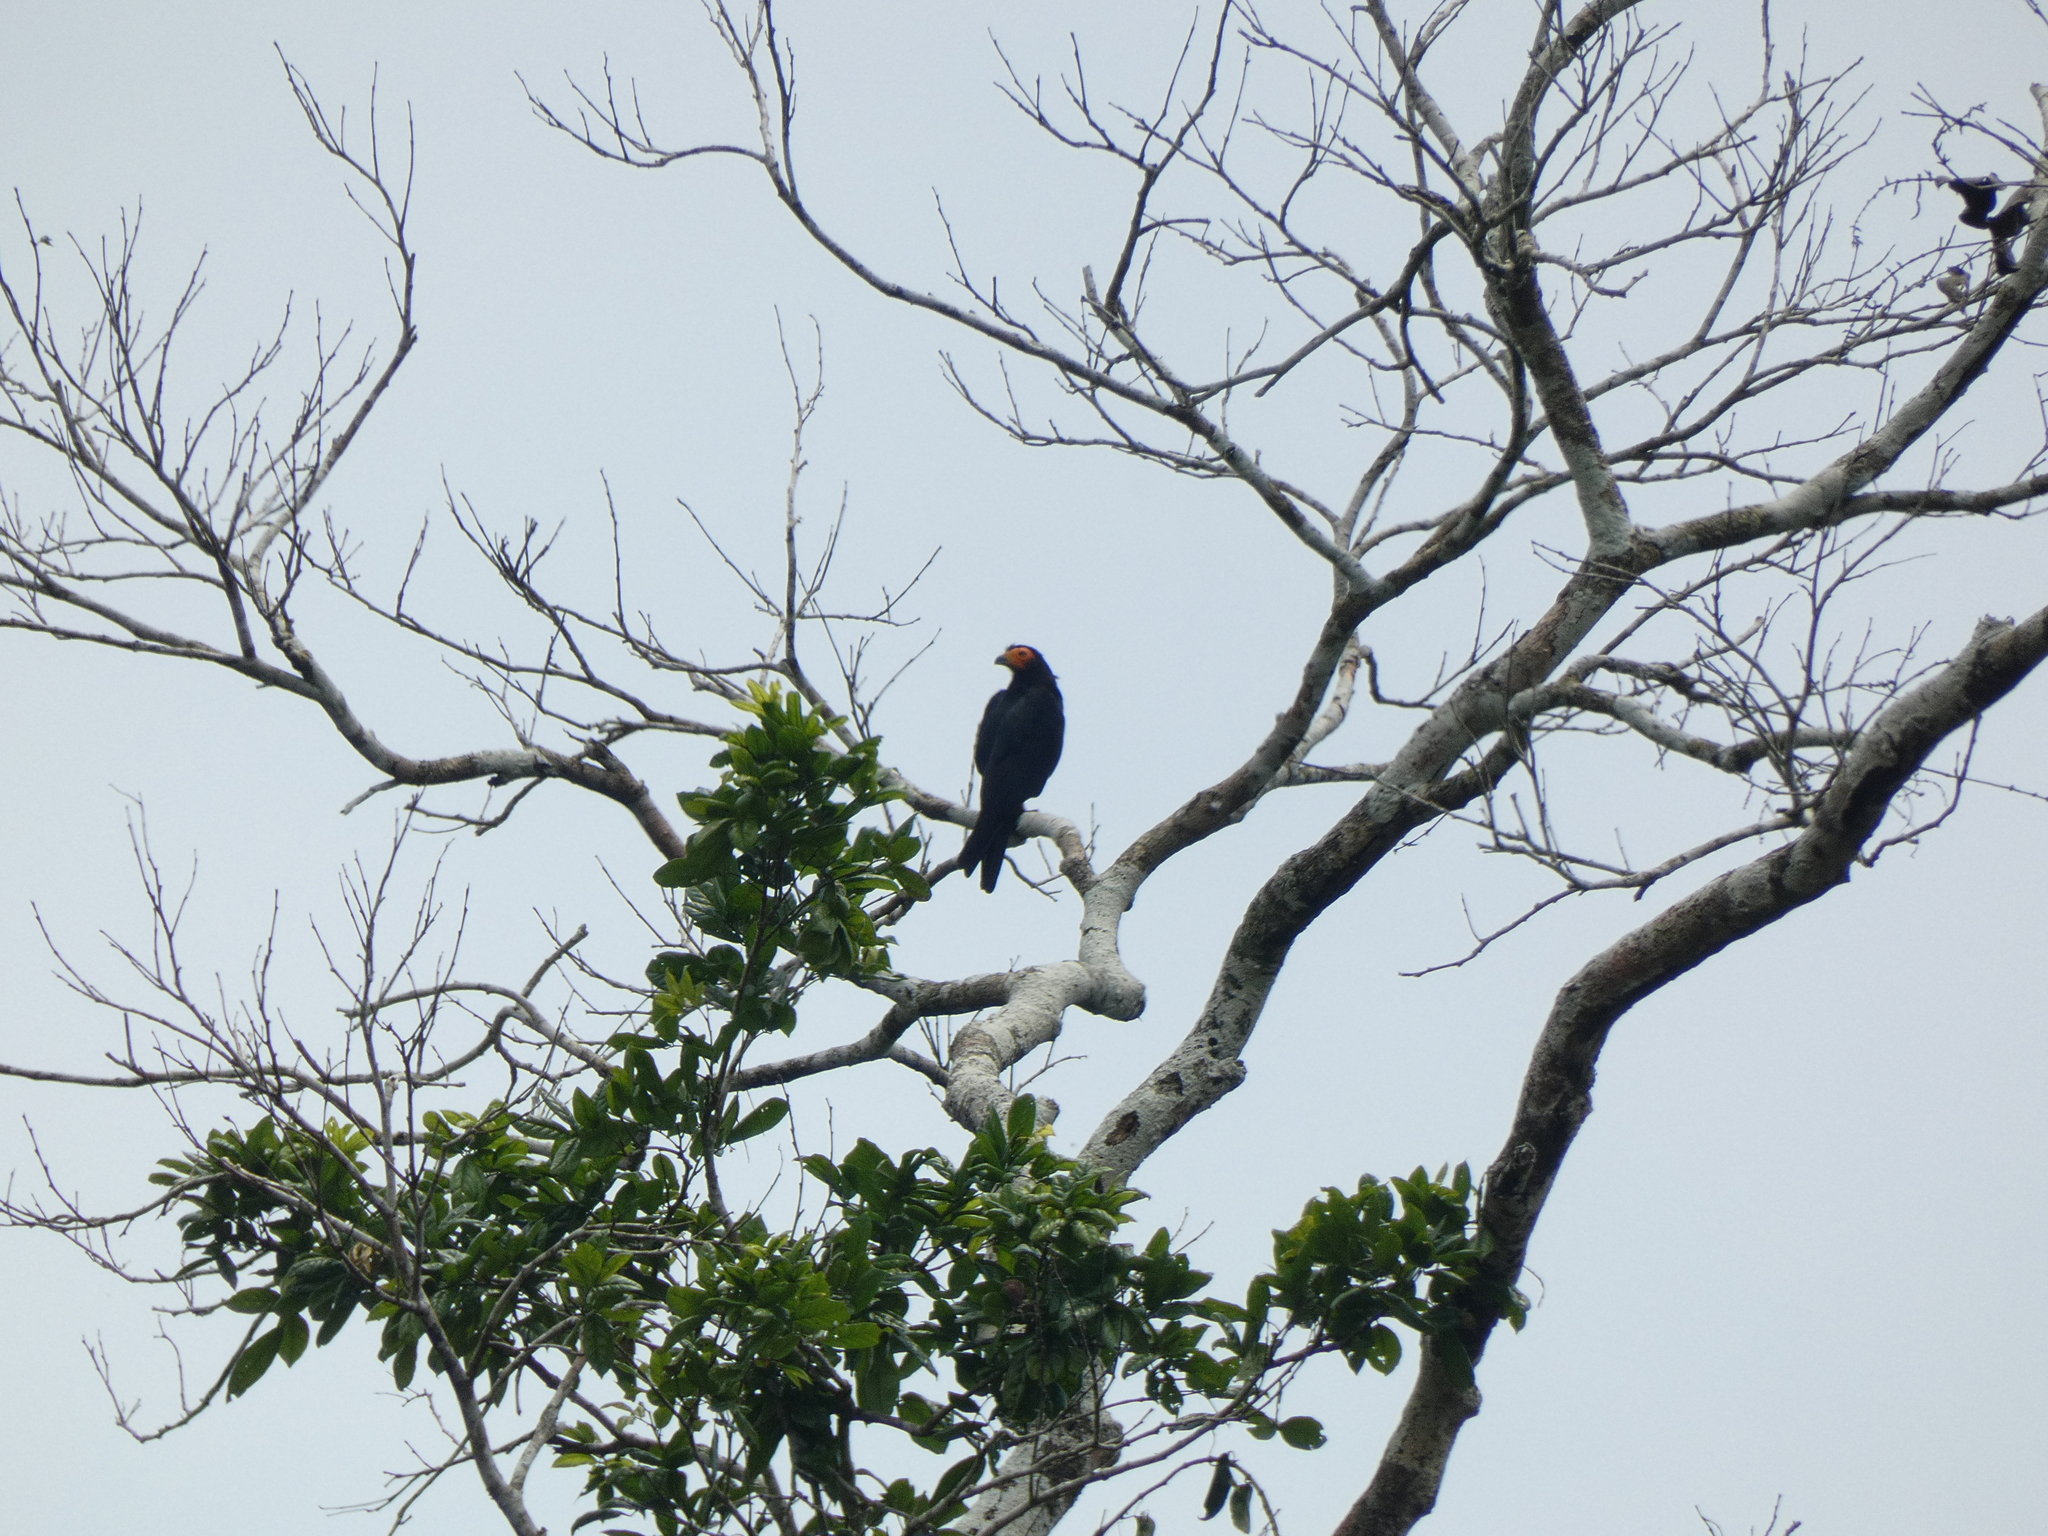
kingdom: Animalia
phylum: Chordata
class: Aves
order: Falconiformes
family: Falconidae
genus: Daptrius
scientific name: Daptrius ater
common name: Black caracara
